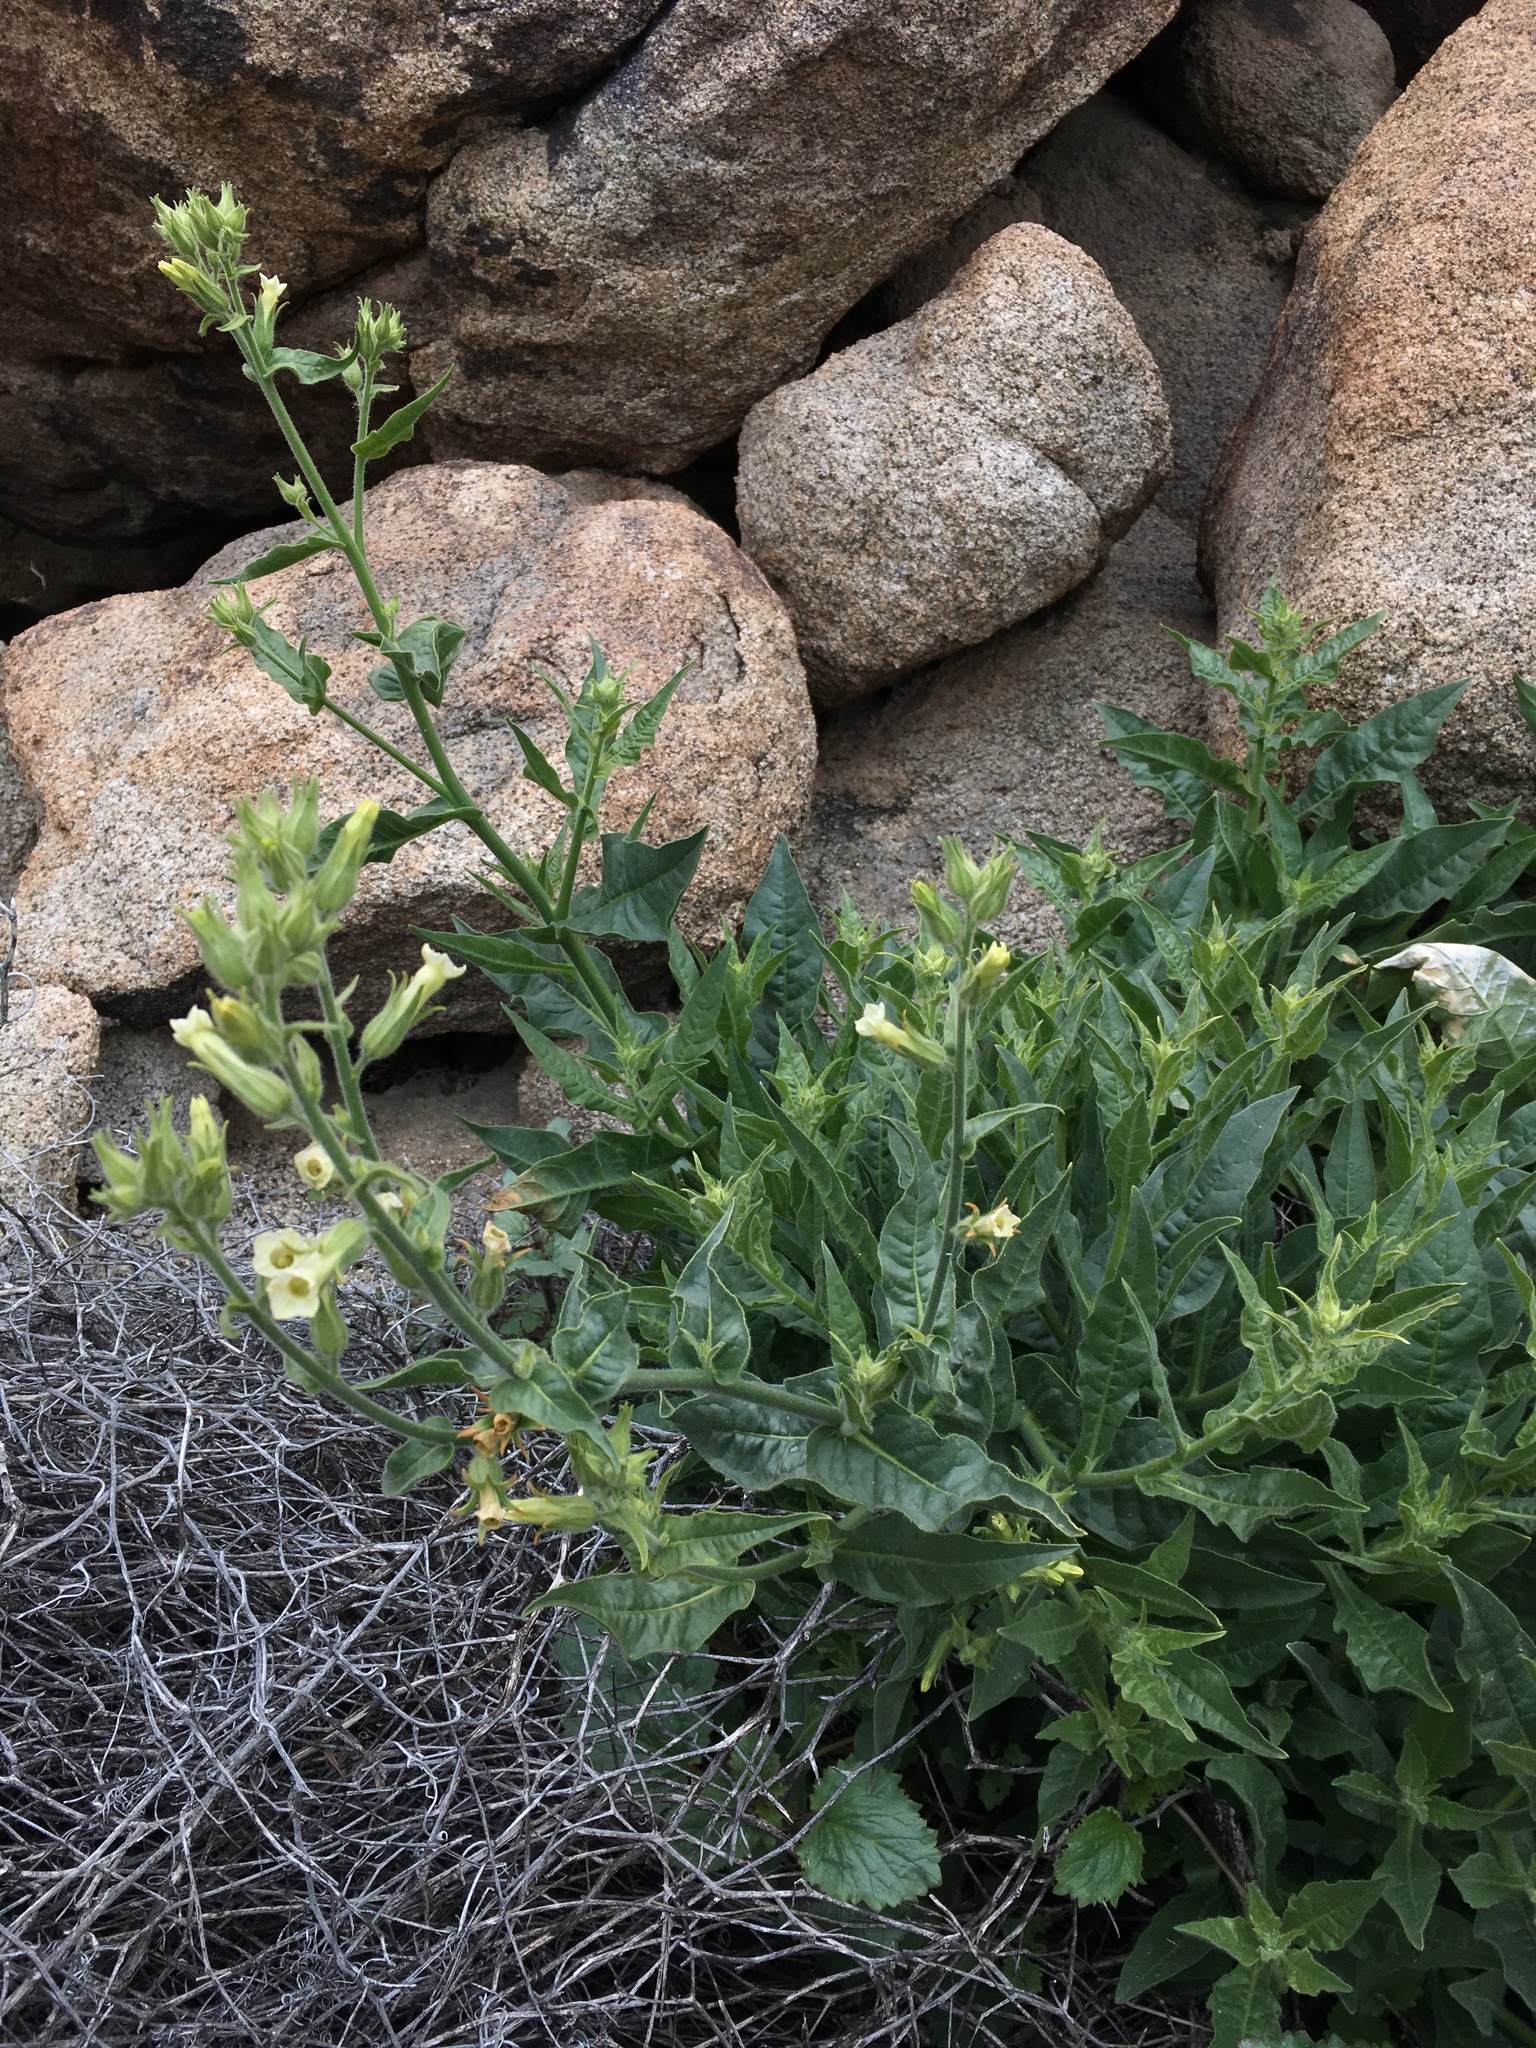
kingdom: Plantae
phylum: Tracheophyta
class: Magnoliopsida
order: Solanales
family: Solanaceae
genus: Nicotiana
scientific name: Nicotiana obtusifolia
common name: Desert tobacco
